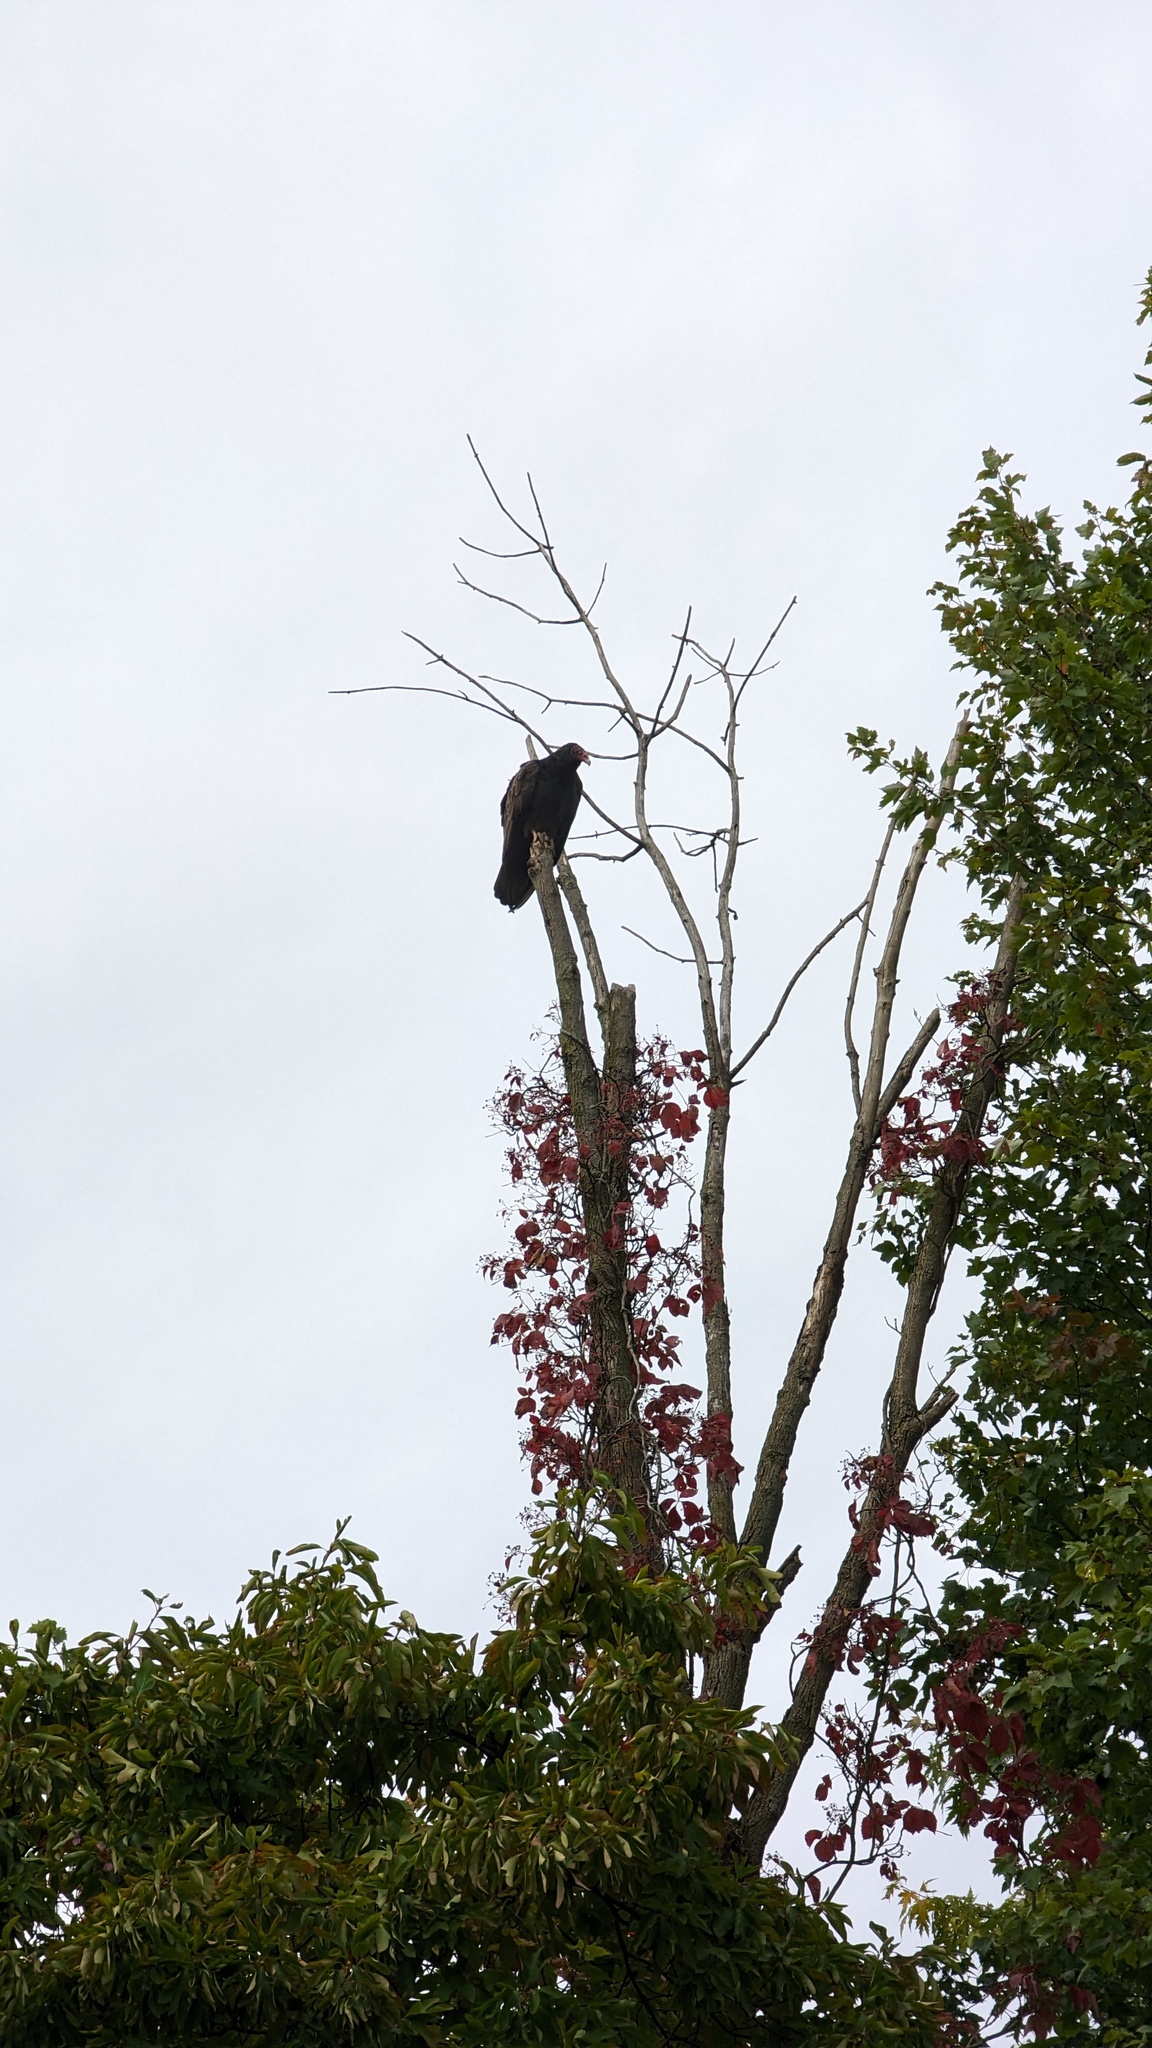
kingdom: Animalia
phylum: Chordata
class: Aves
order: Accipitriformes
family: Cathartidae
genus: Cathartes
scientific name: Cathartes aura
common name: Turkey vulture
